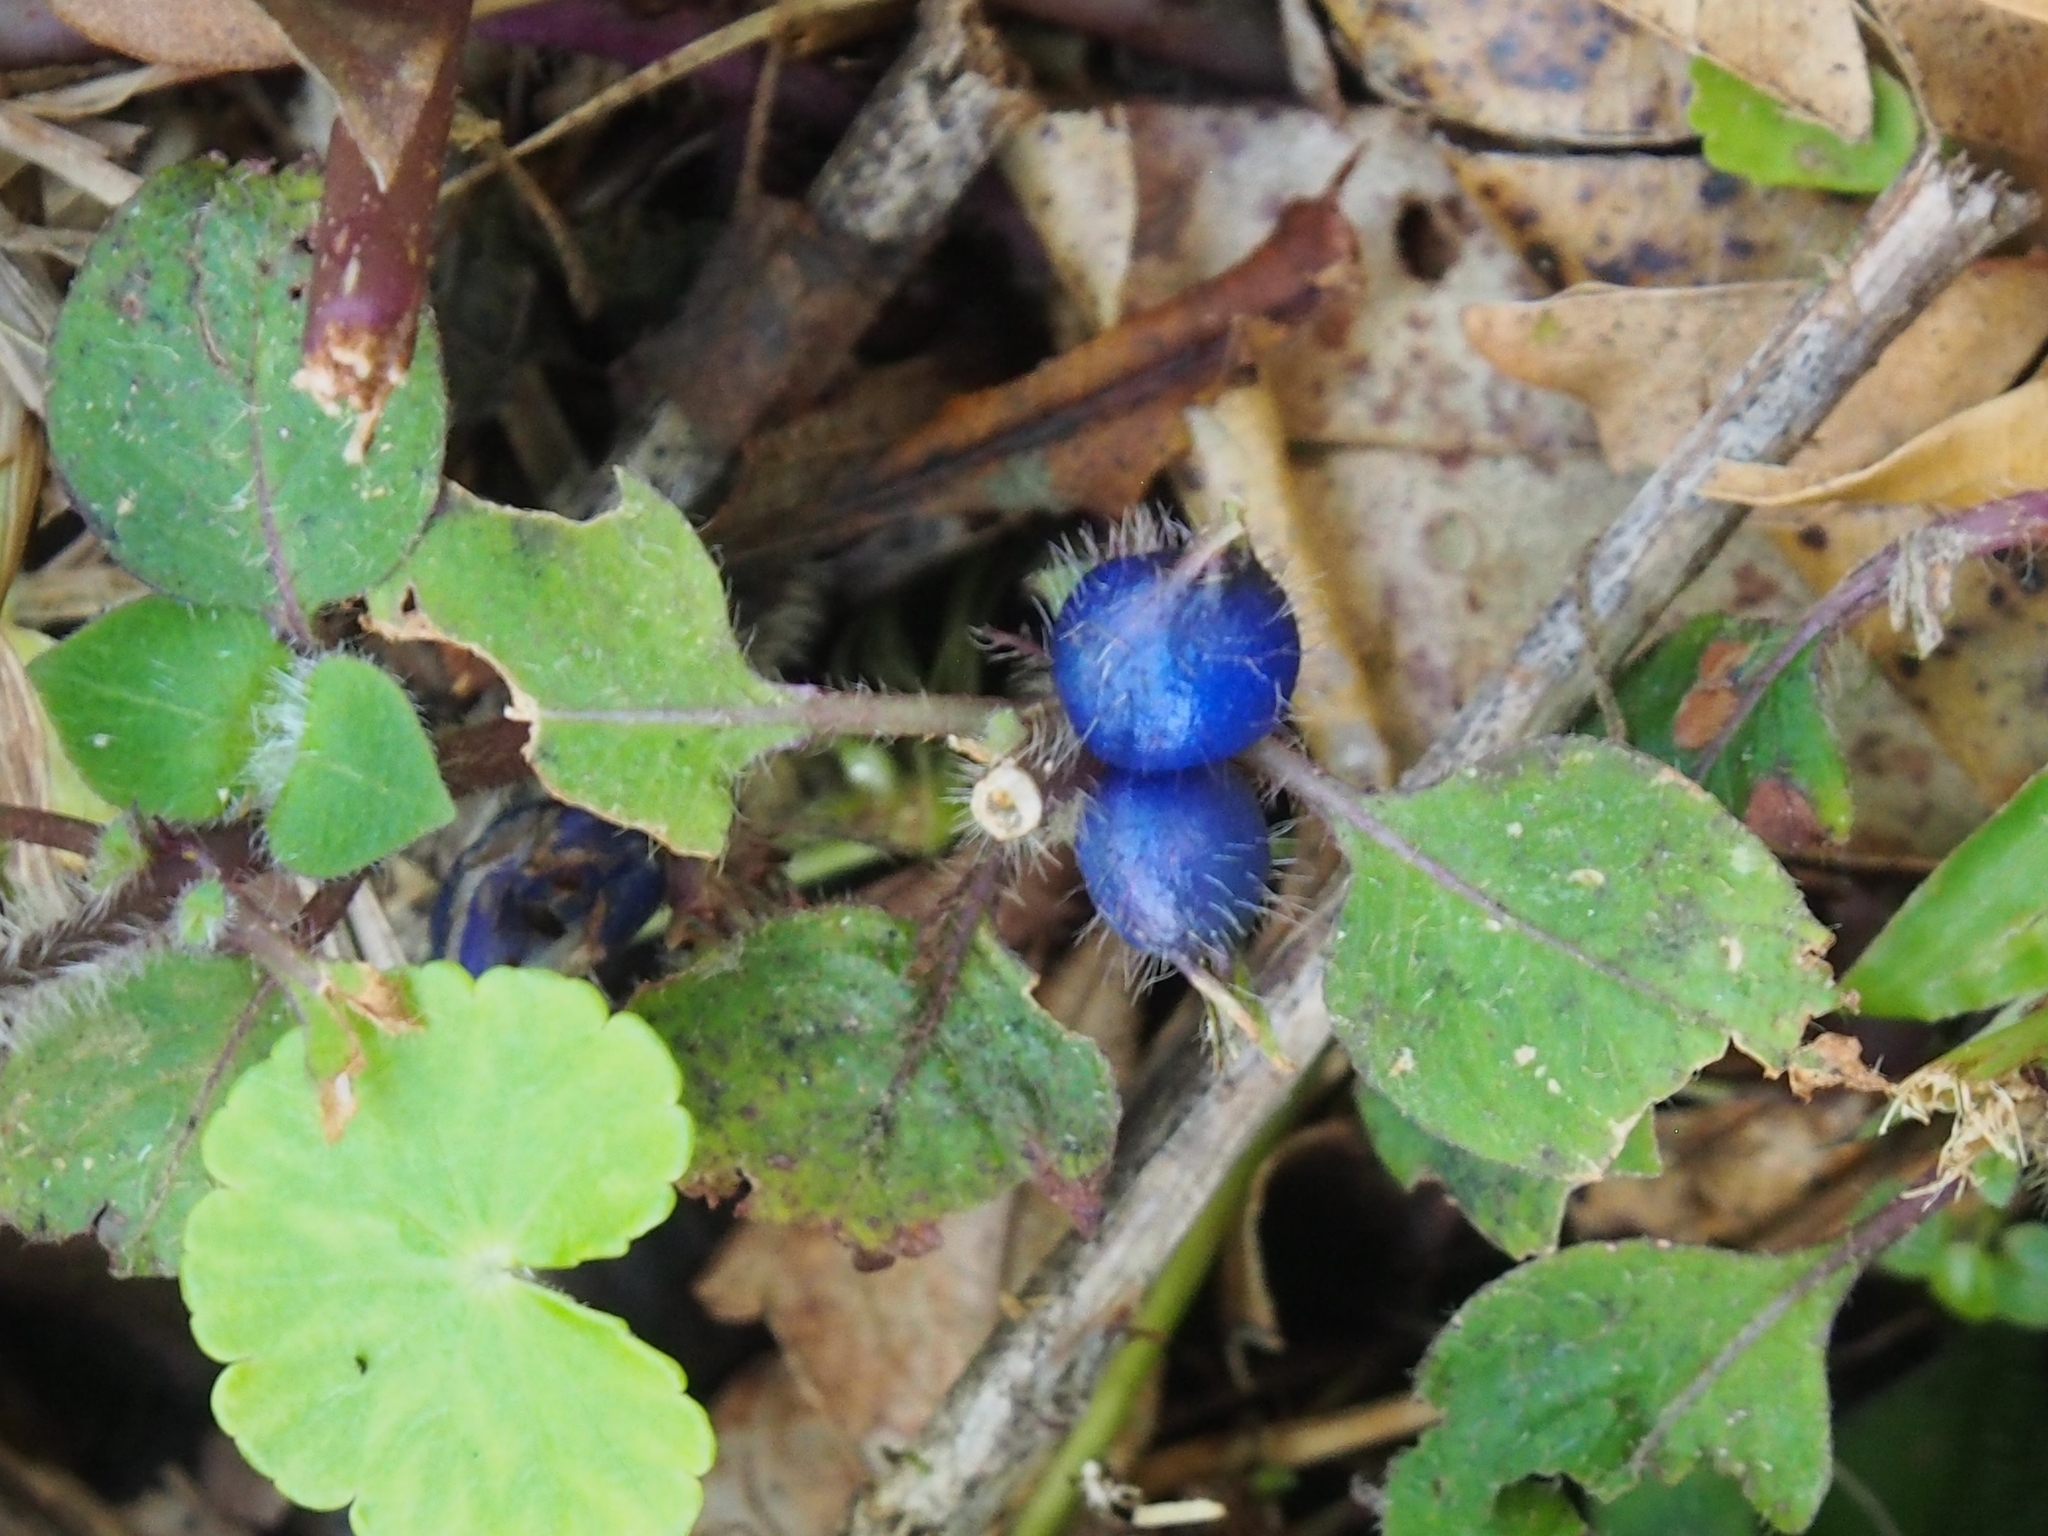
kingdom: Plantae
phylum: Tracheophyta
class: Magnoliopsida
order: Gentianales
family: Rubiaceae
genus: Coccocypselum
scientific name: Coccocypselum hispidulum
